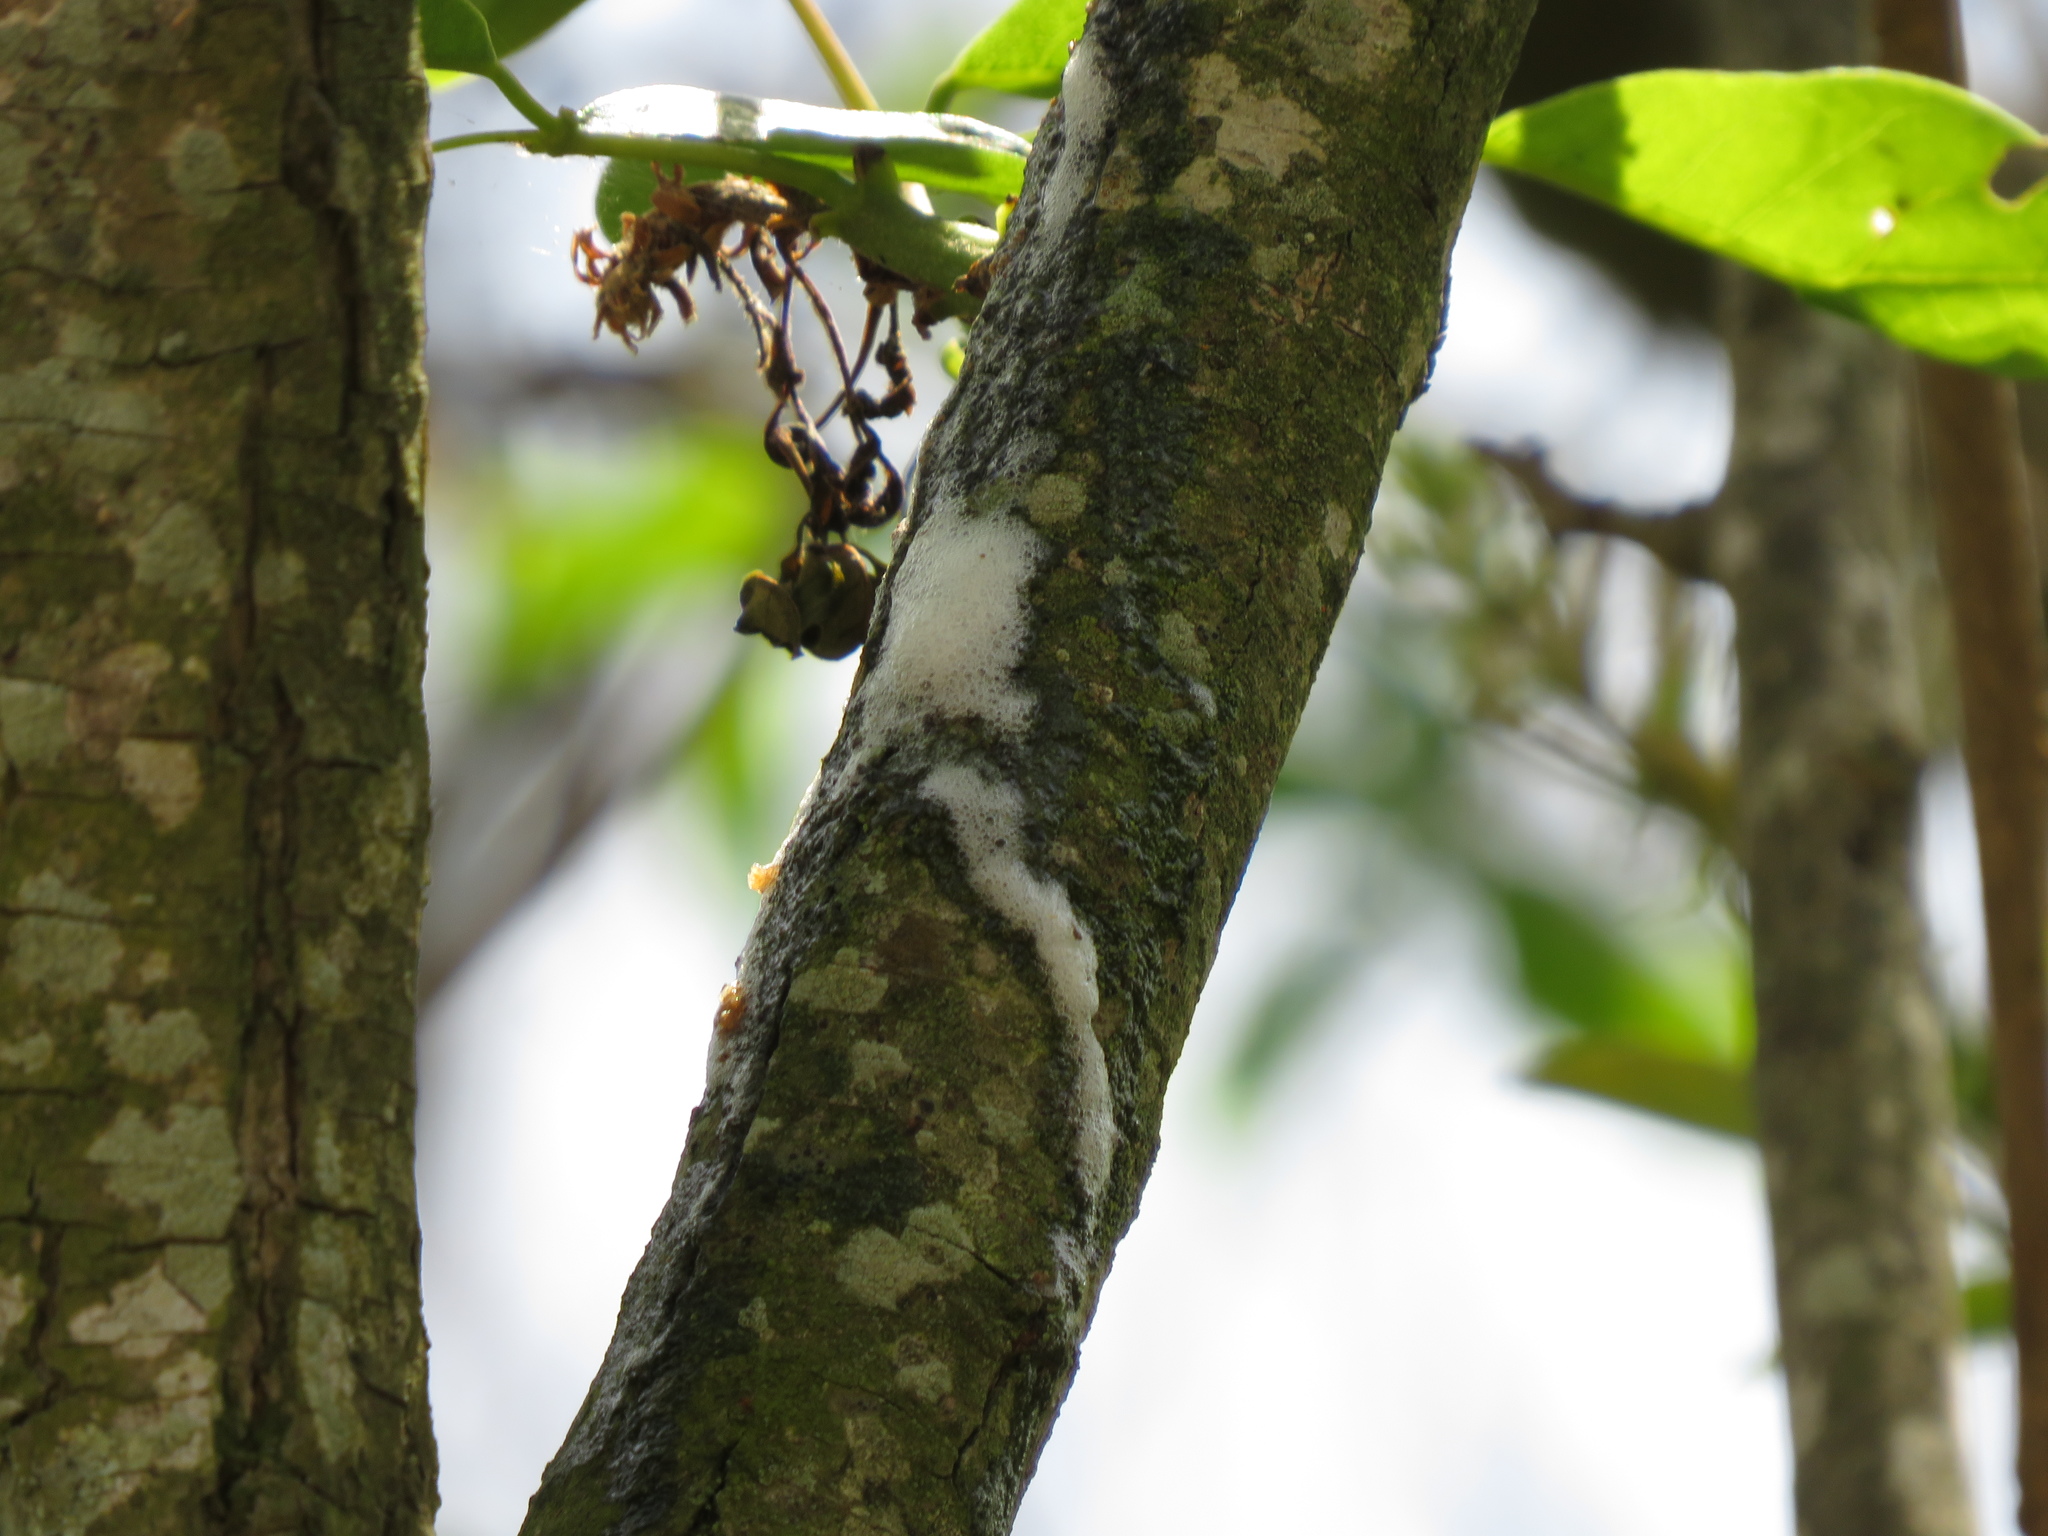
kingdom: Animalia
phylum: Arthropoda
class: Insecta
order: Hemiptera
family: Aphrophoridae
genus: Cephisus
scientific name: Cephisus siccifolius
